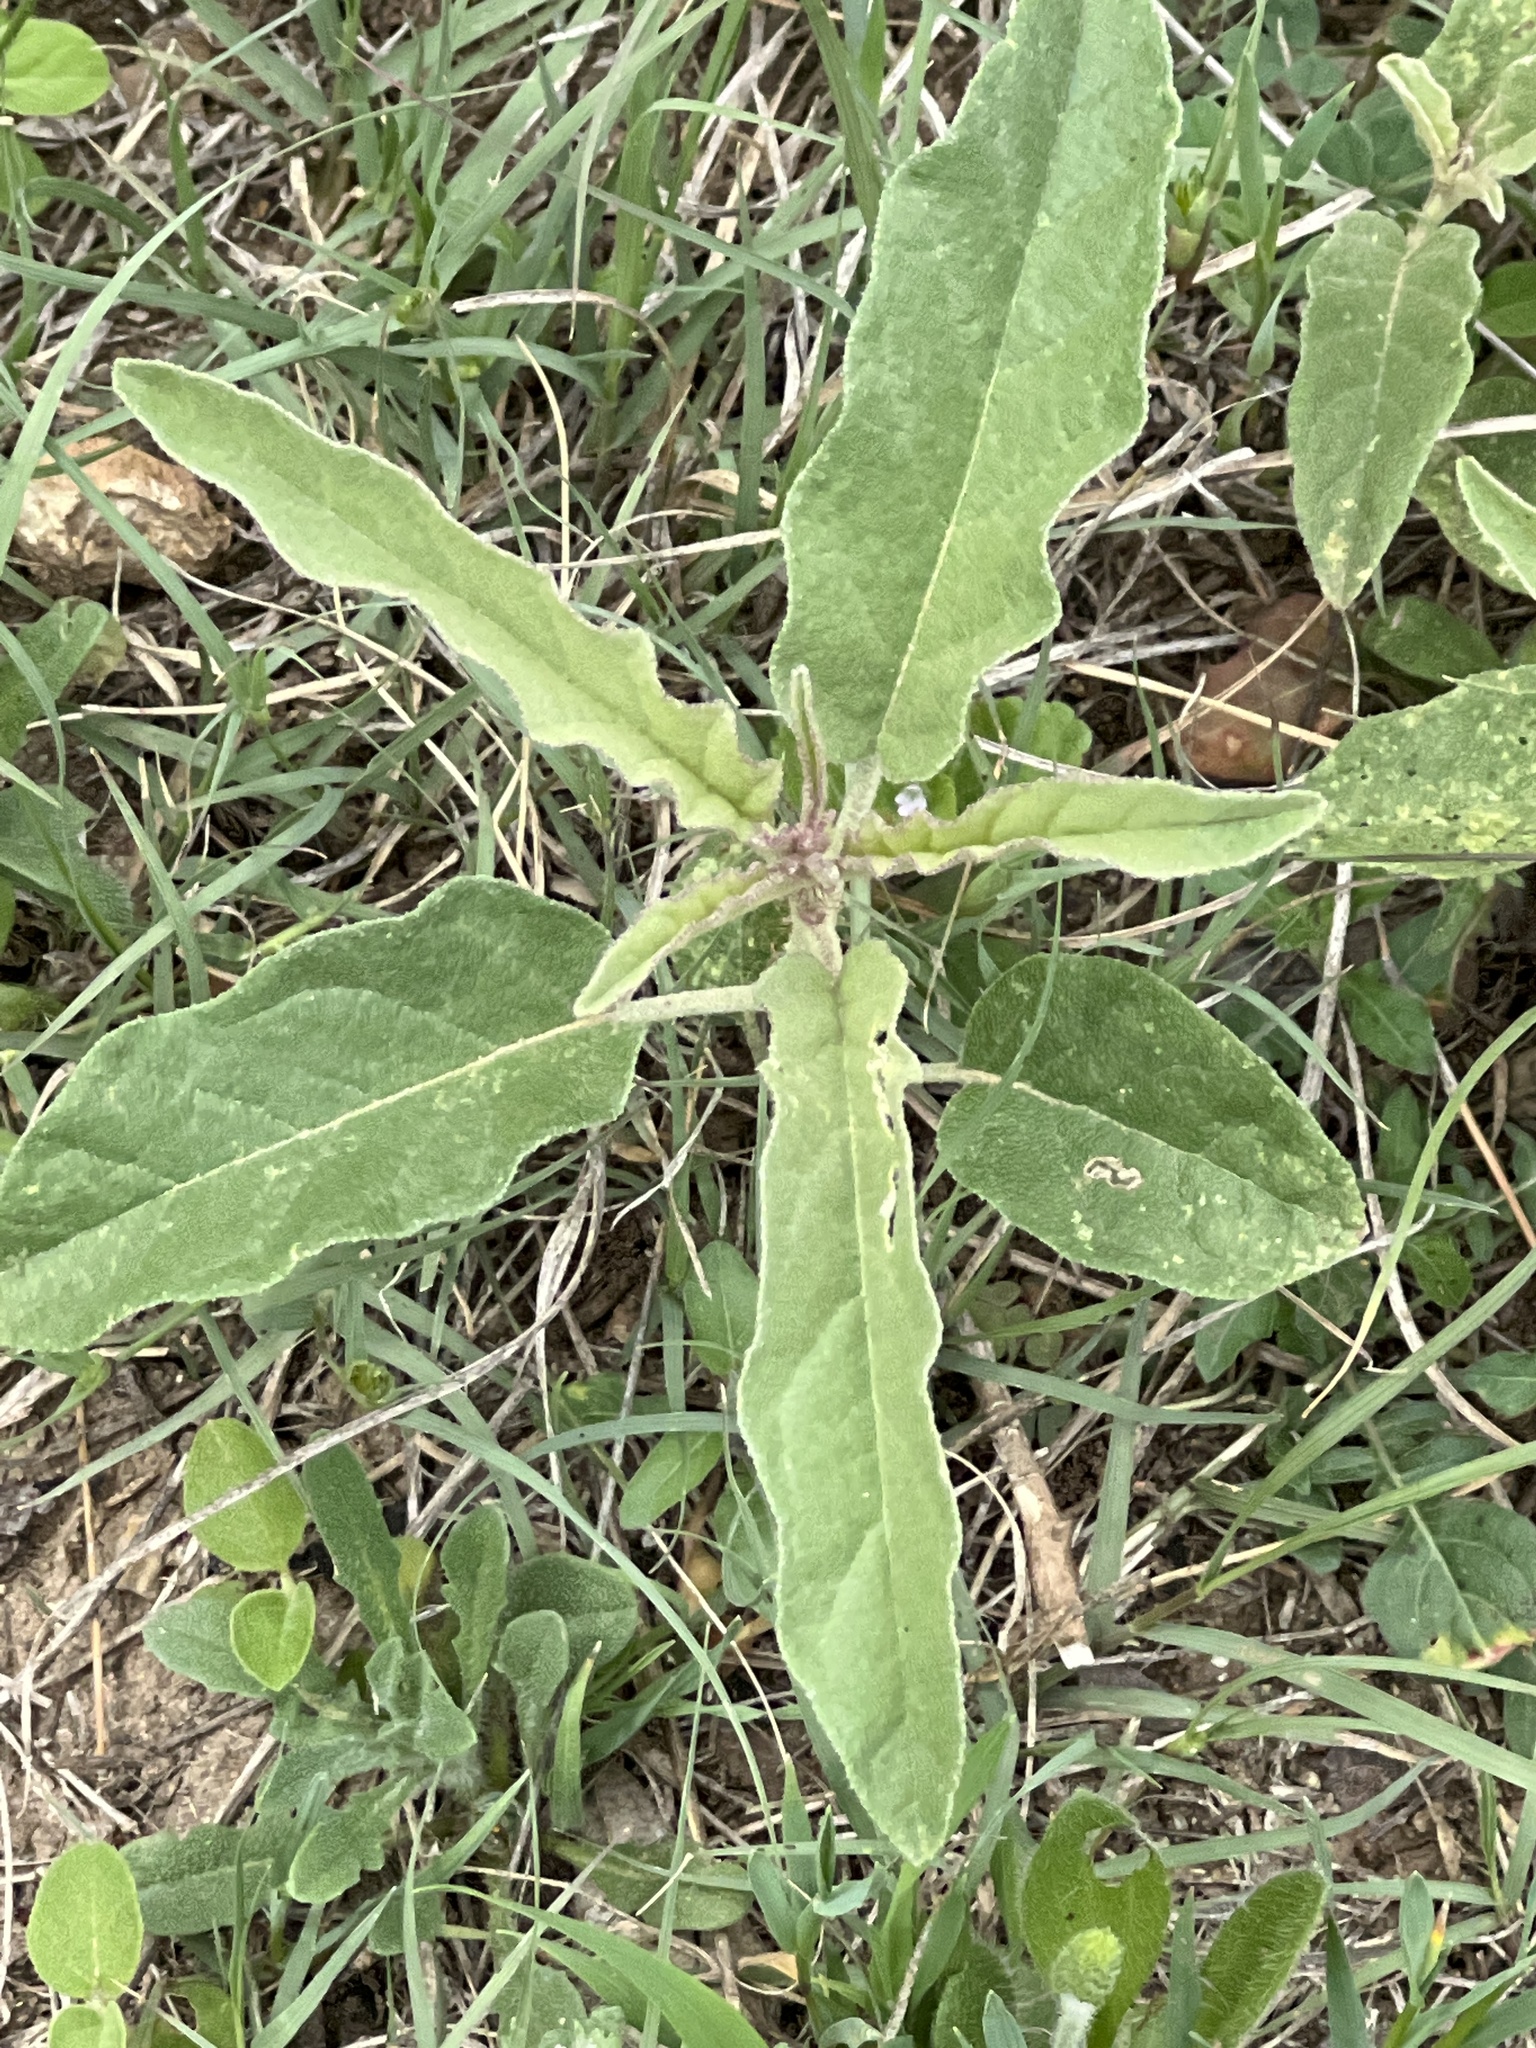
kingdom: Plantae
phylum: Tracheophyta
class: Magnoliopsida
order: Solanales
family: Solanaceae
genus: Solanum
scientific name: Solanum elaeagnifolium
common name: Silverleaf nightshade
